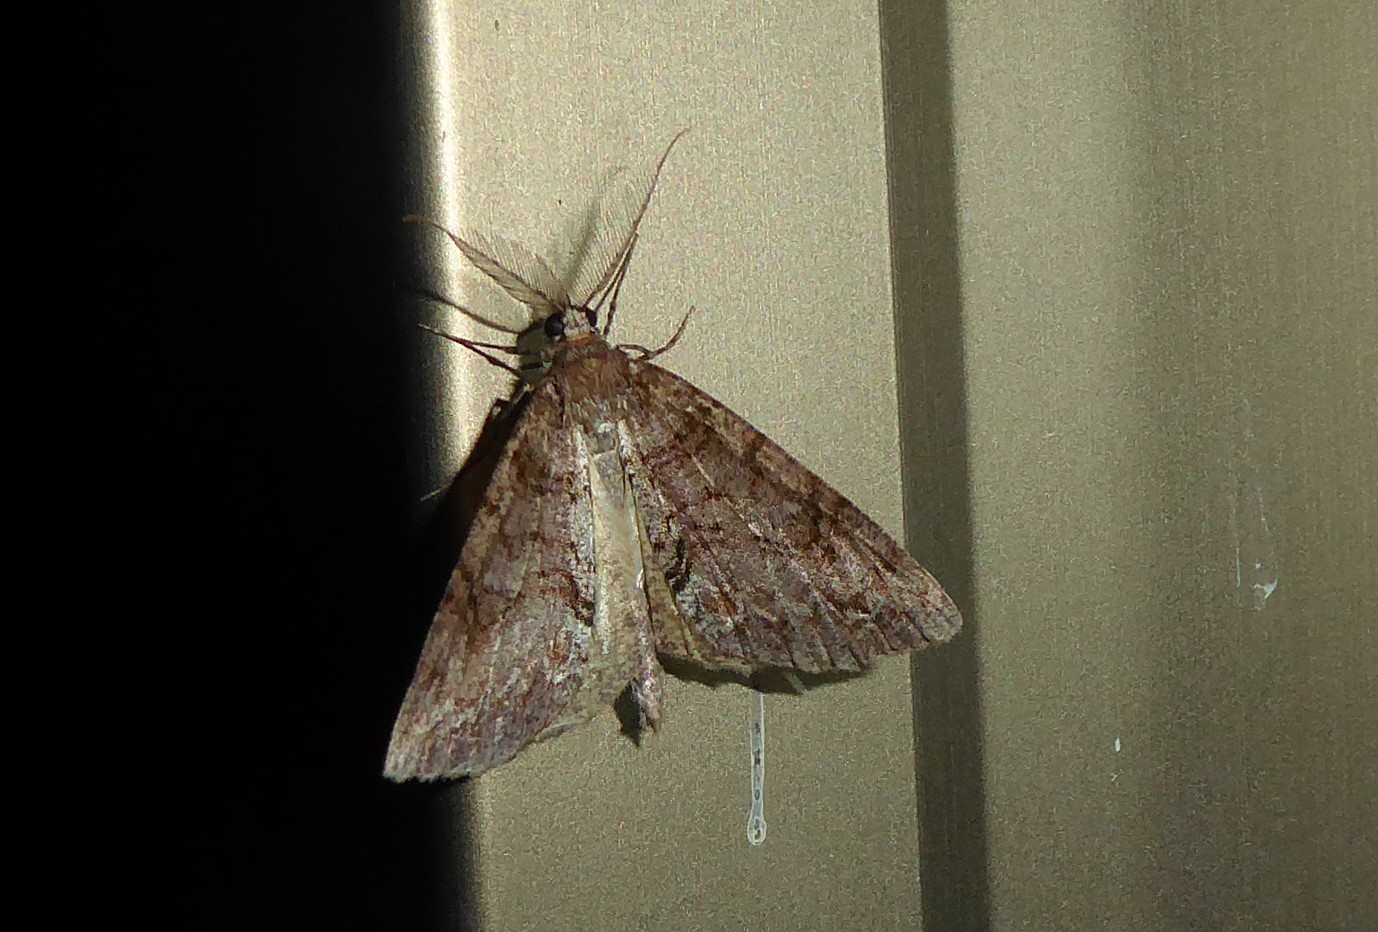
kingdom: Animalia
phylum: Arthropoda
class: Insecta
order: Lepidoptera
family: Geometridae
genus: Pseudocoremia
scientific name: Pseudocoremia suavis
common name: Common forest looper
